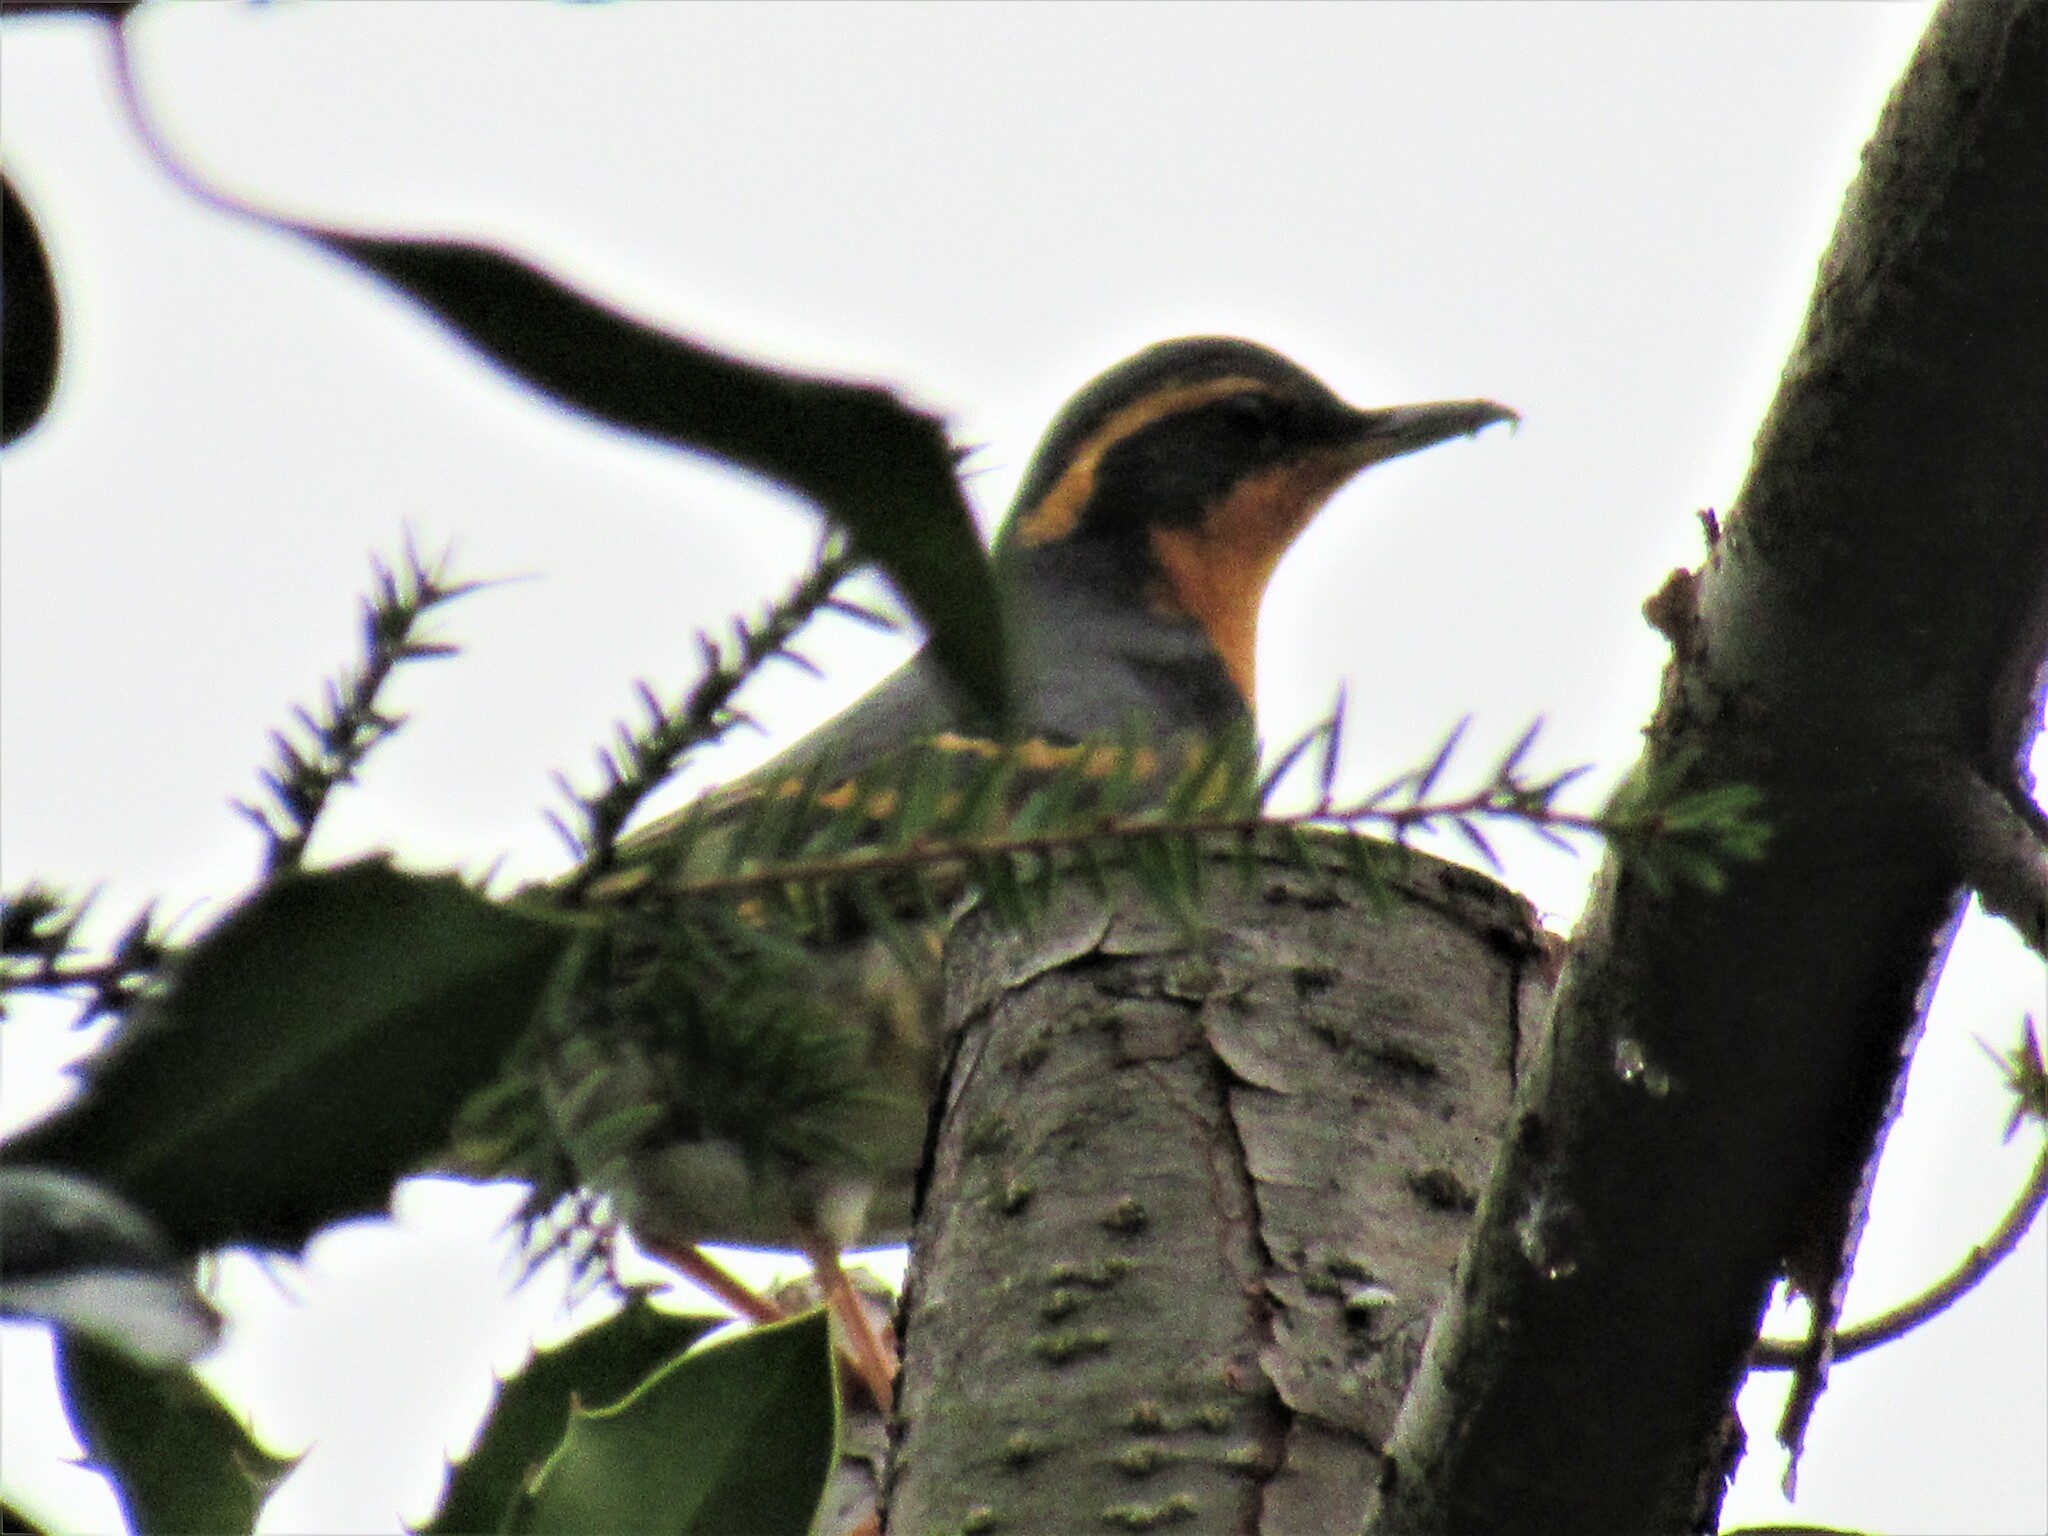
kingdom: Animalia
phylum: Chordata
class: Aves
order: Passeriformes
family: Turdidae
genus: Ixoreus
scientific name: Ixoreus naevius
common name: Varied thrush
